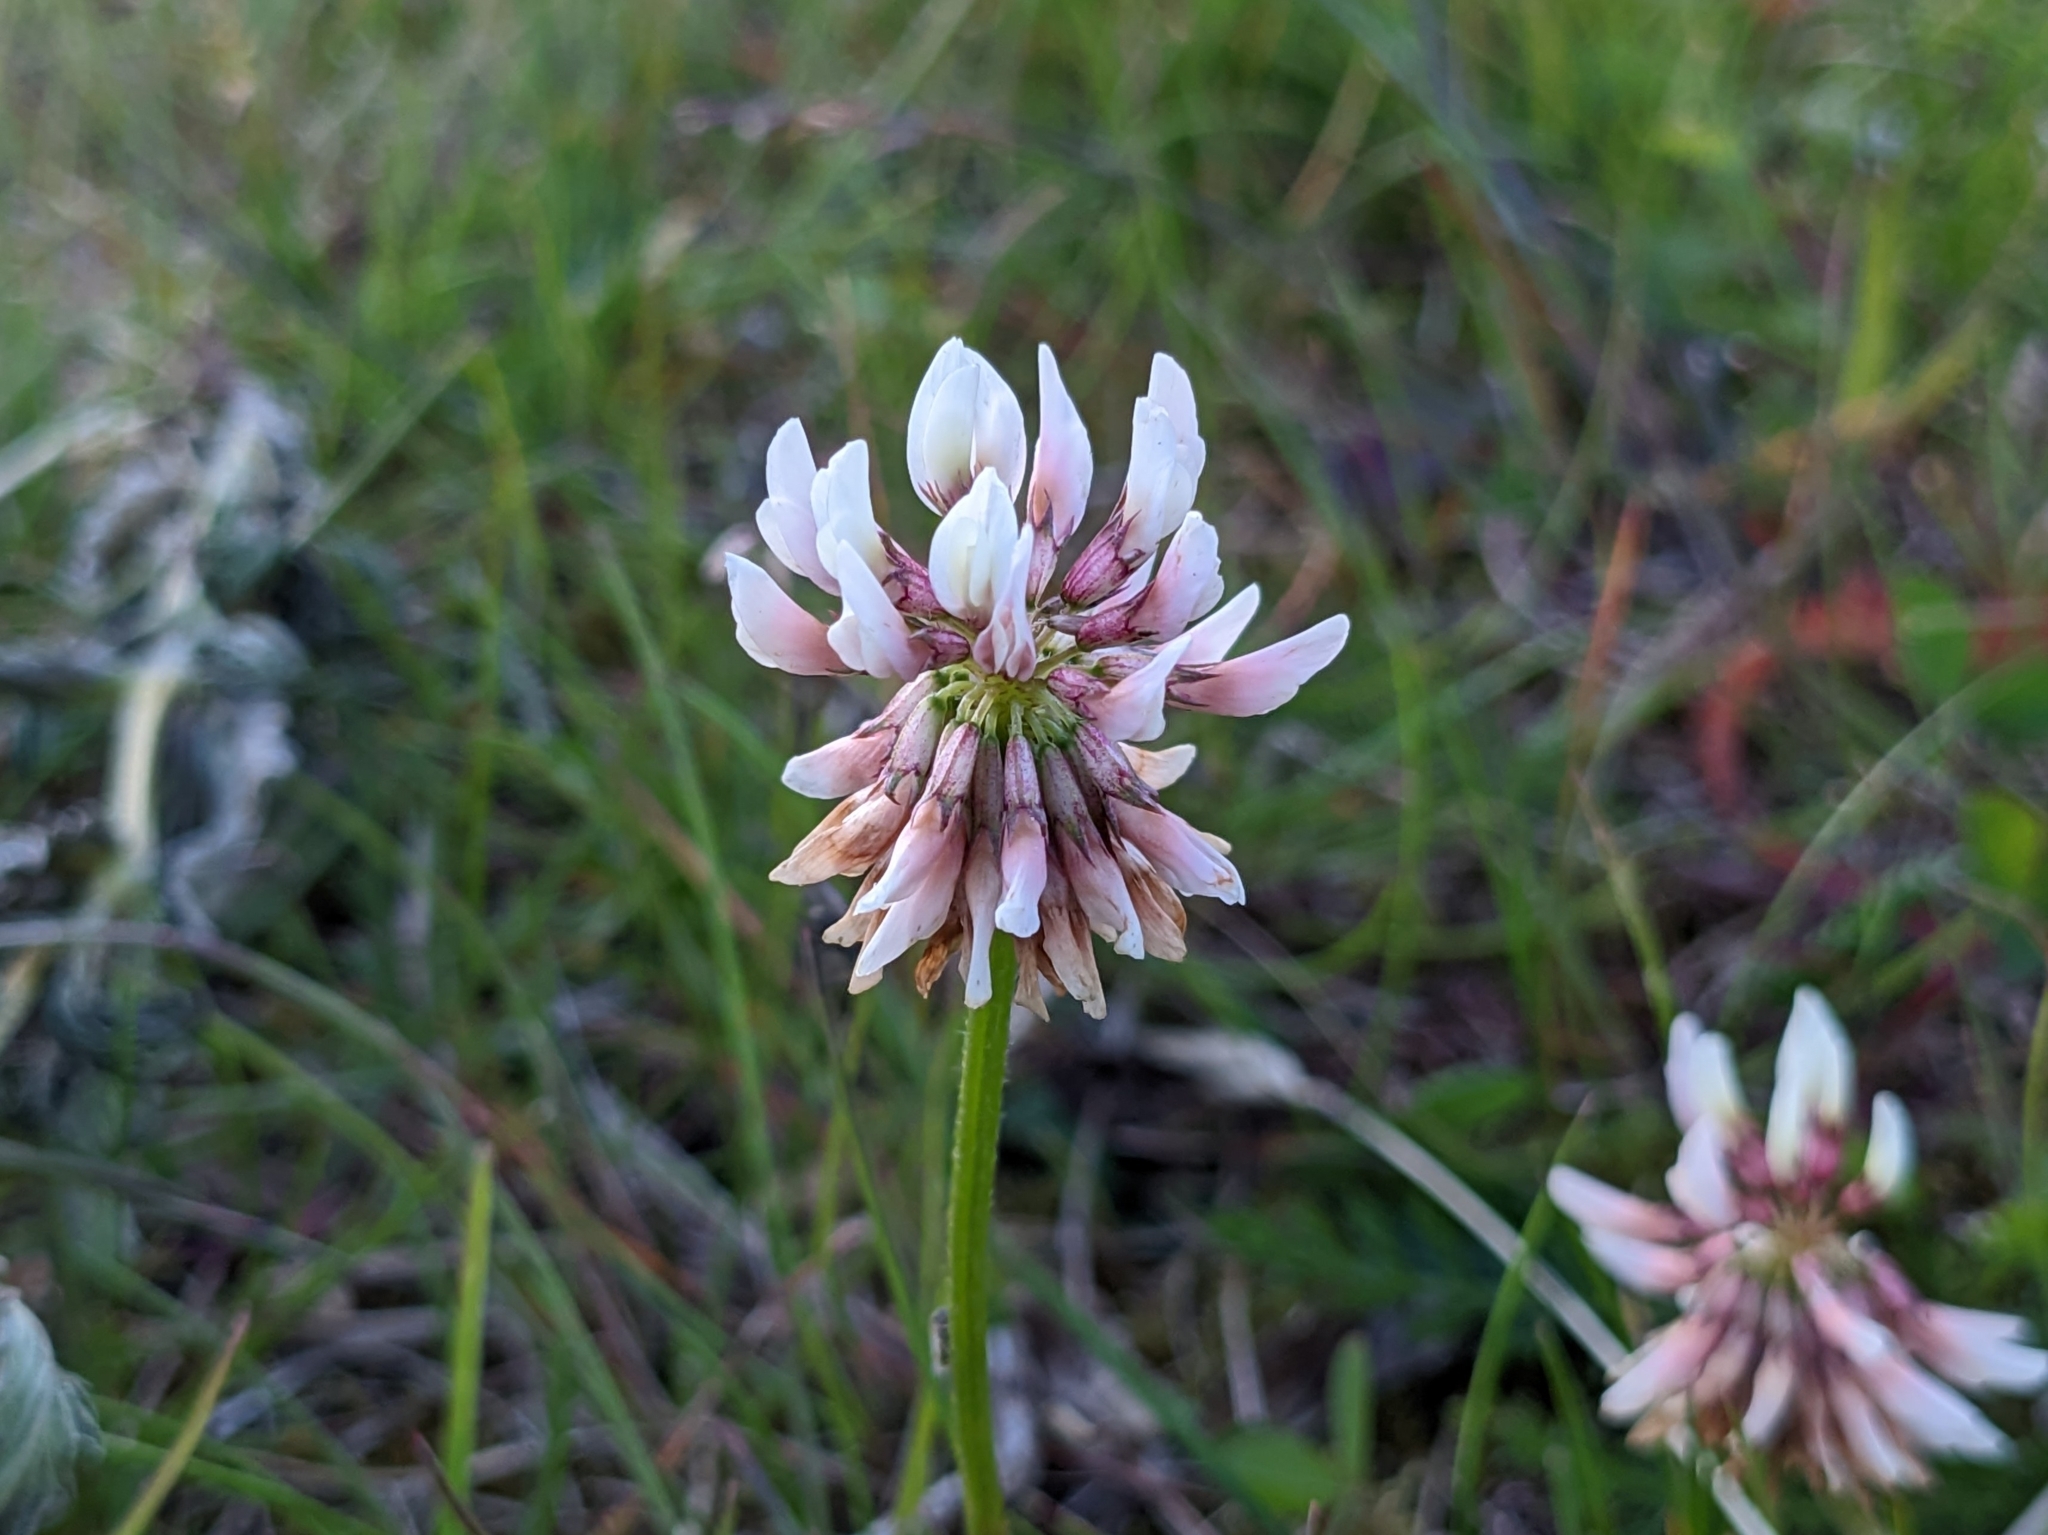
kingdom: Plantae
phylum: Tracheophyta
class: Magnoliopsida
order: Fabales
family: Fabaceae
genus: Trifolium
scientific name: Trifolium repens
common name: White clover
